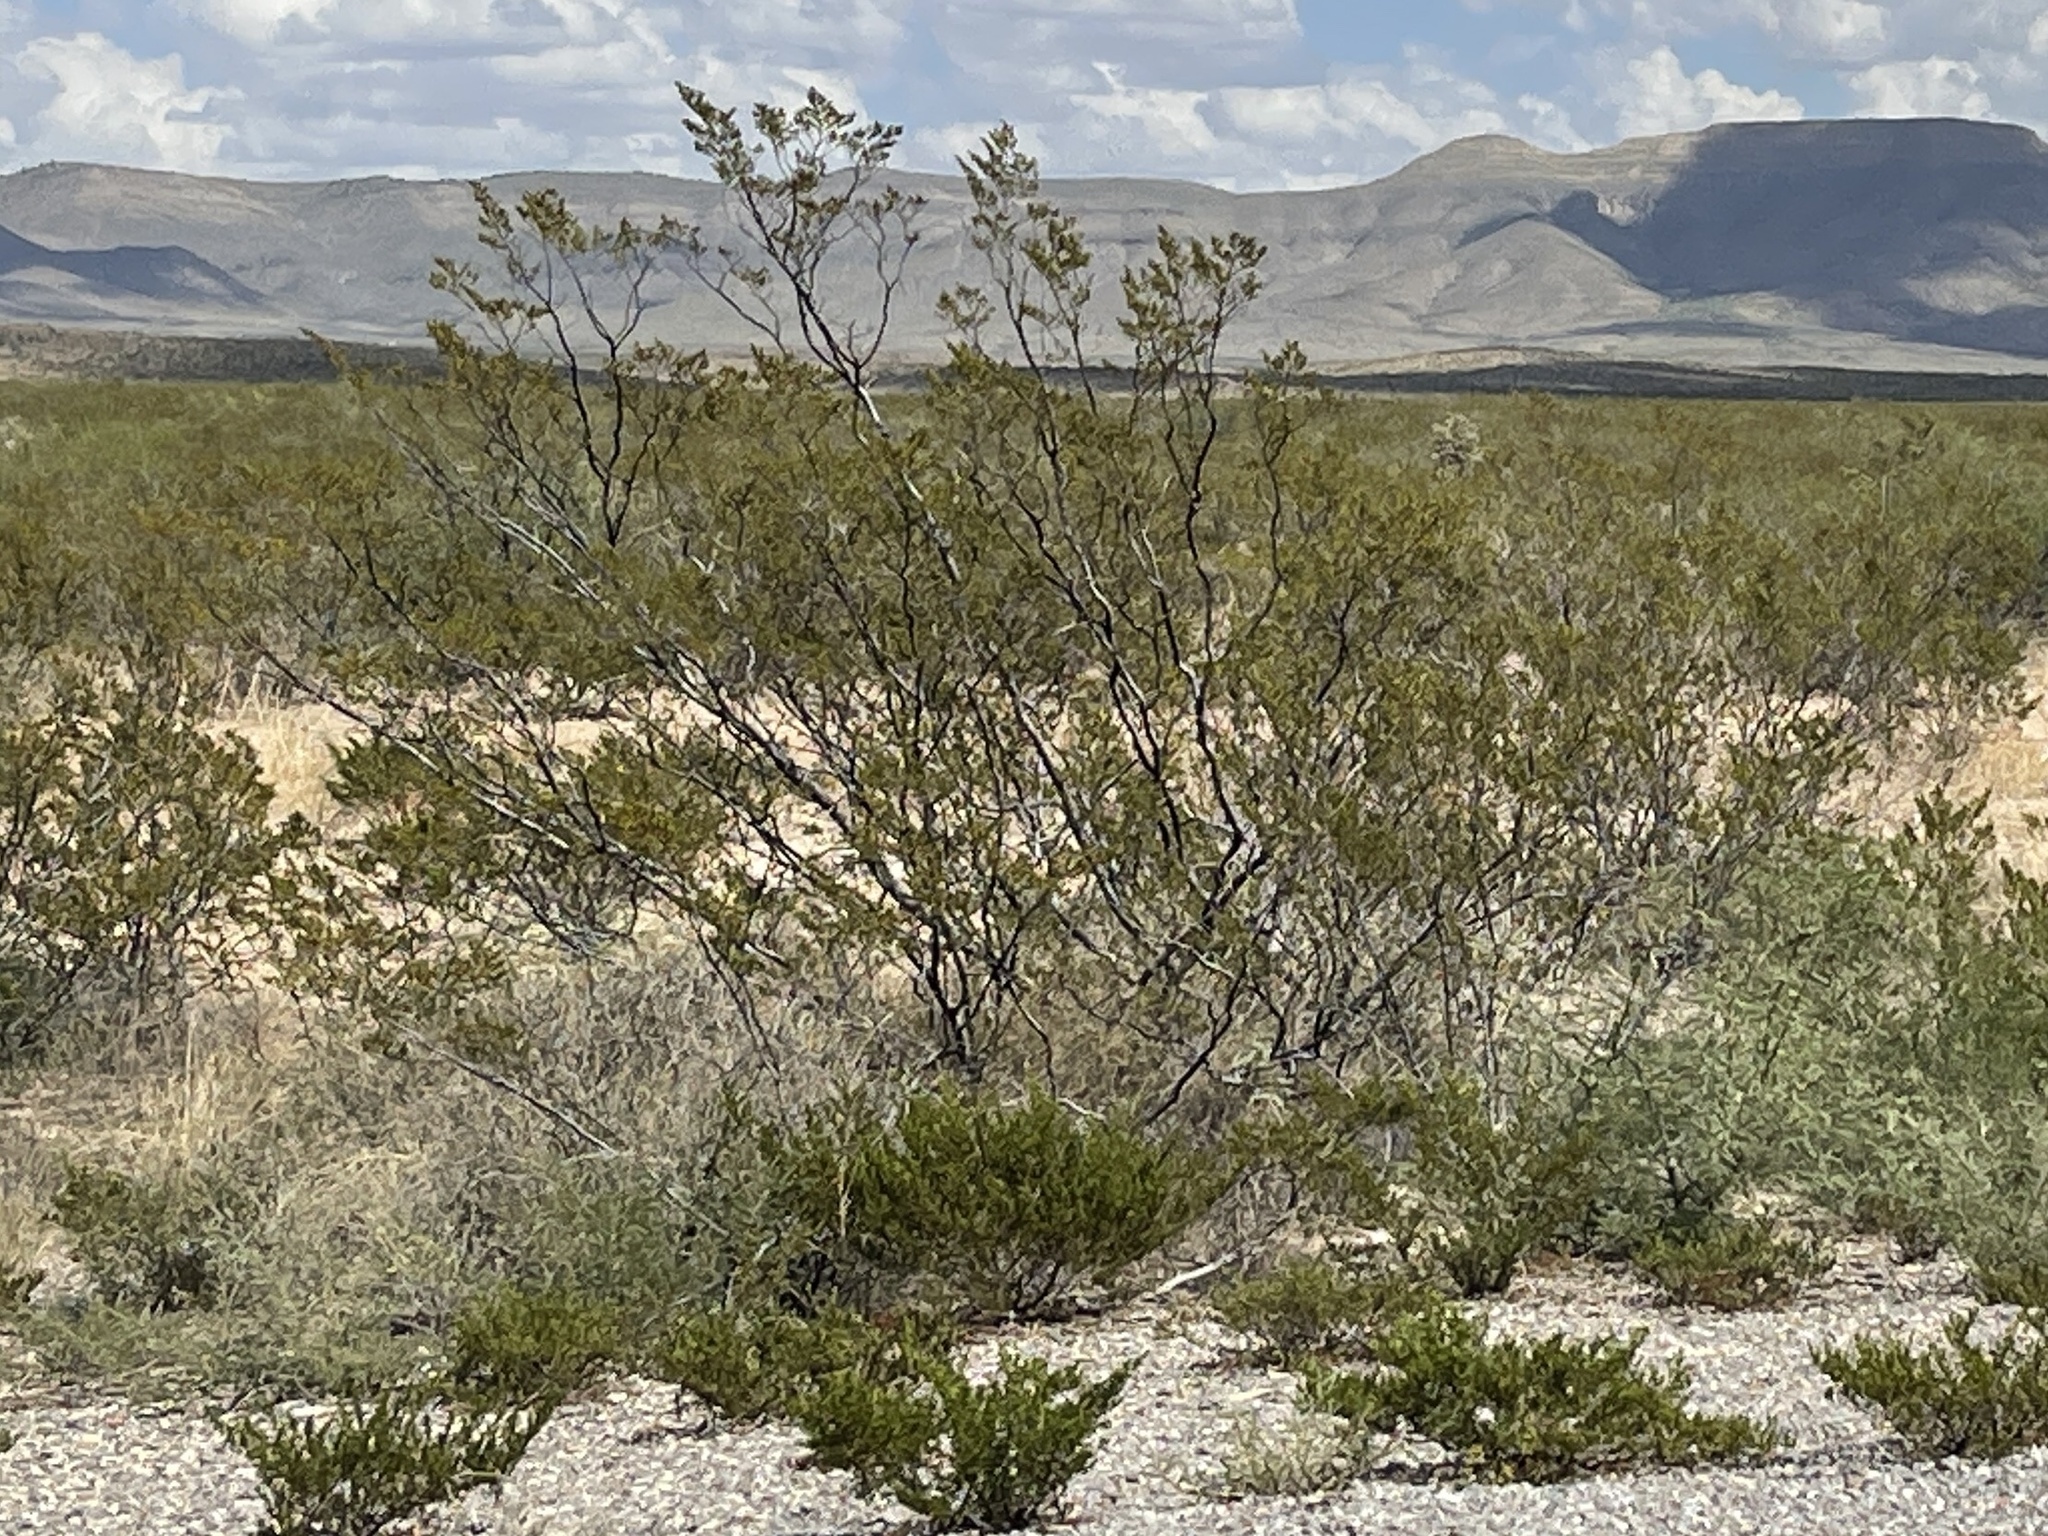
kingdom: Plantae
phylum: Tracheophyta
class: Magnoliopsida
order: Zygophyllales
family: Zygophyllaceae
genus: Larrea
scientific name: Larrea tridentata
